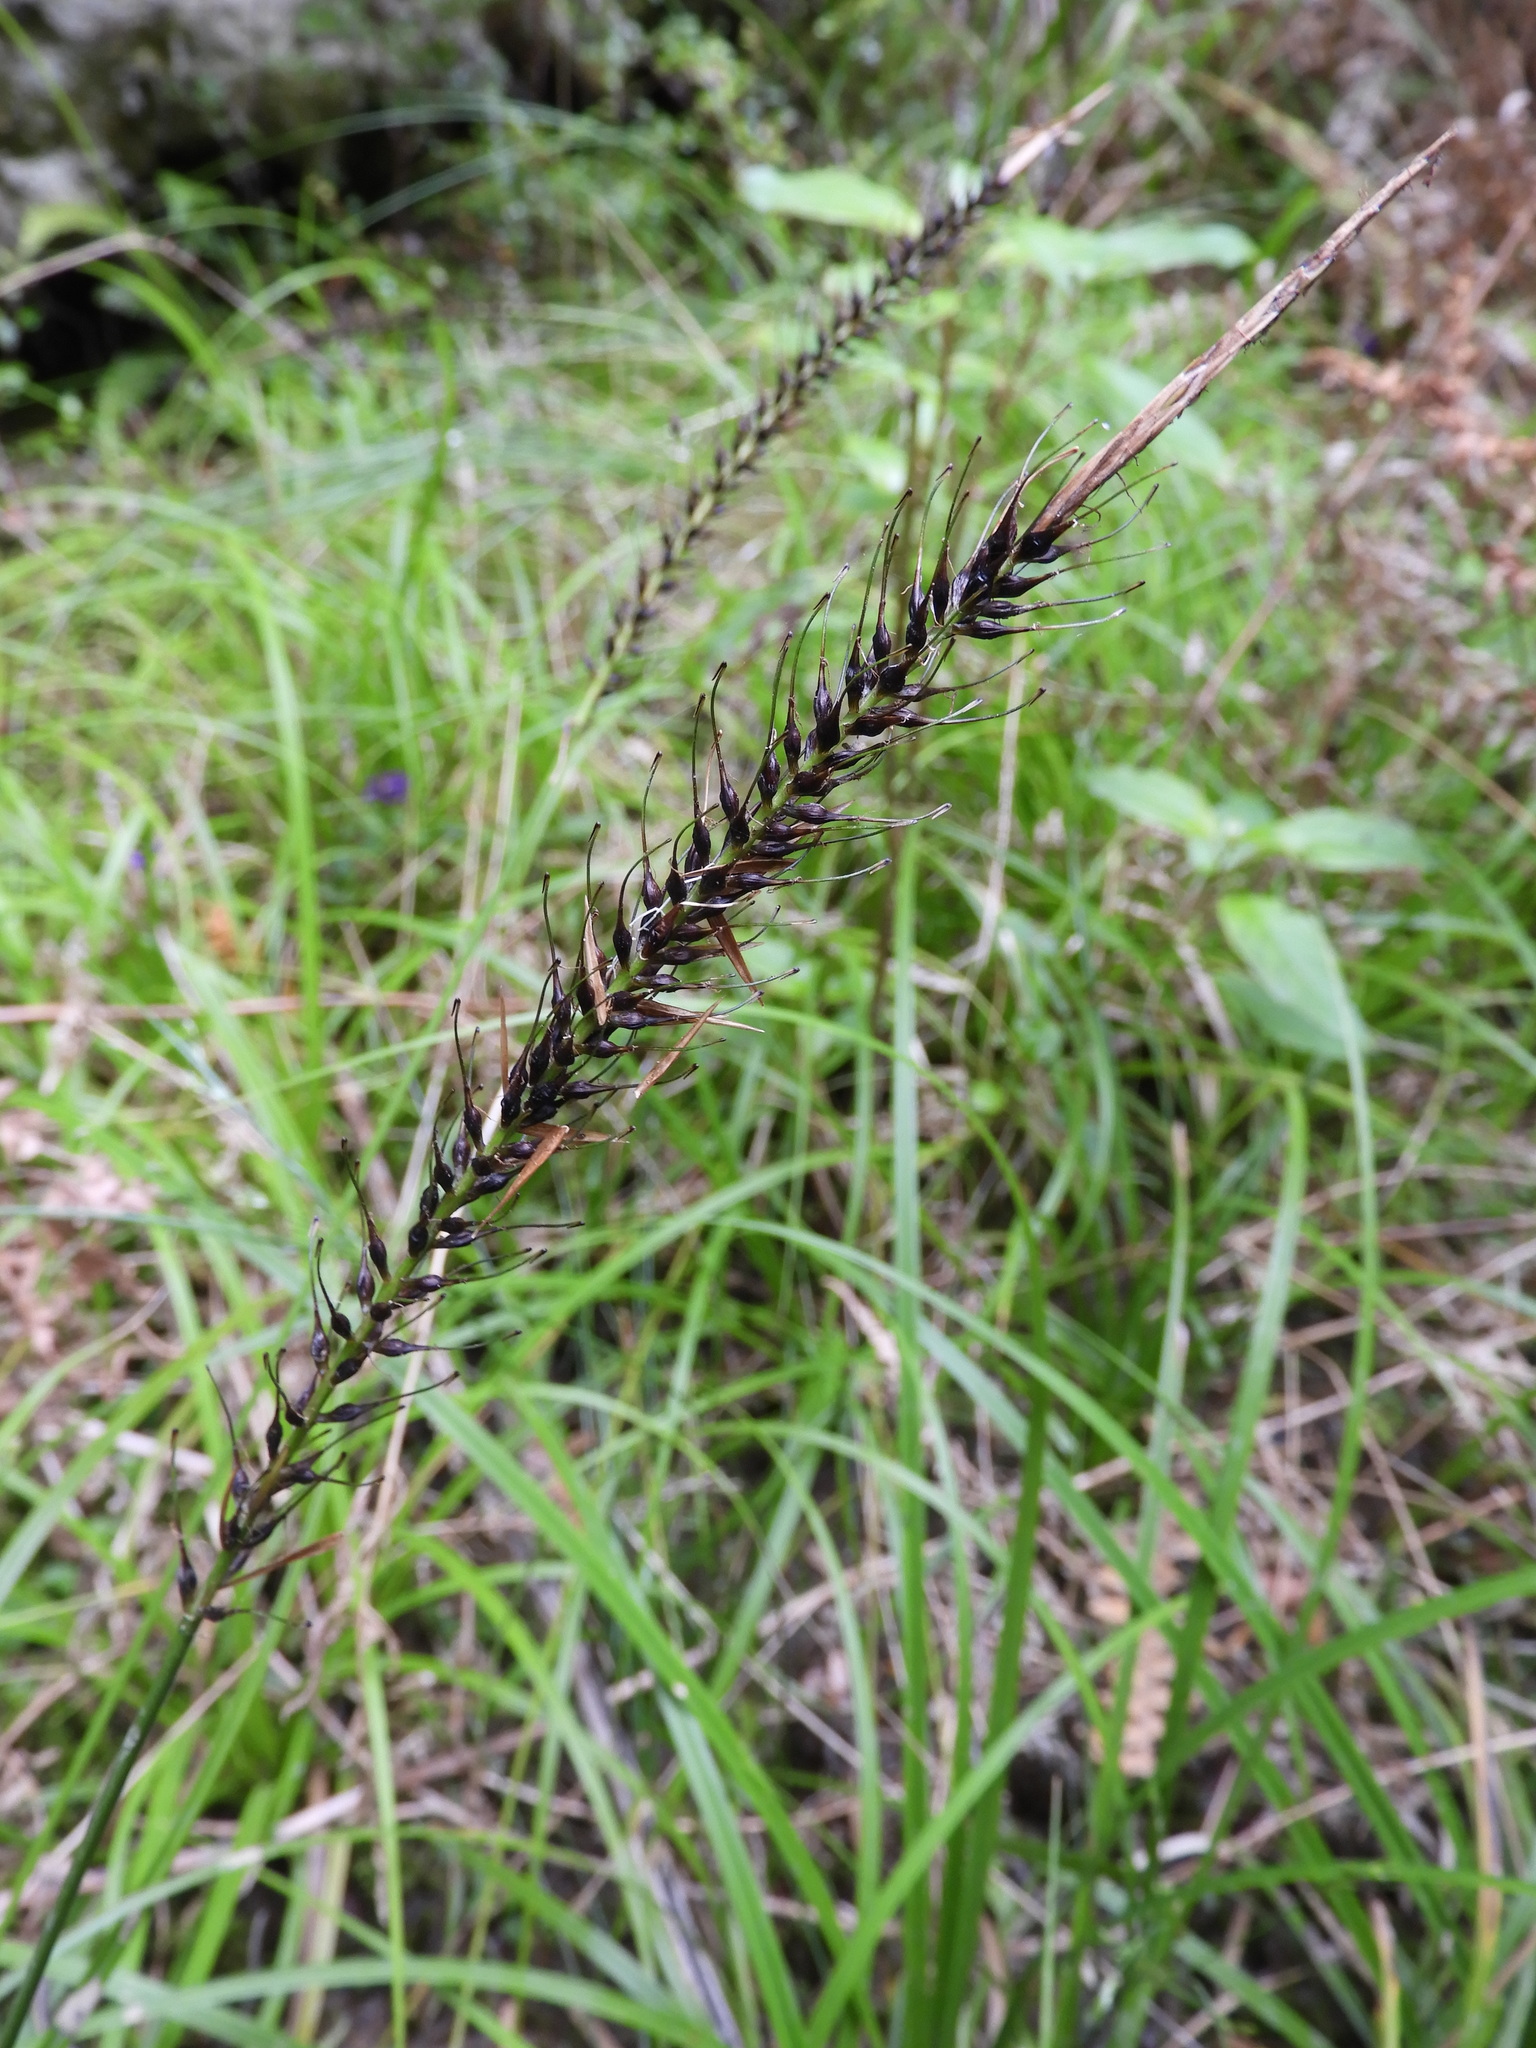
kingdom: Plantae
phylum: Tracheophyta
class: Liliopsida
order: Poales
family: Cyperaceae
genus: Carex
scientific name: Carex corynoidea
